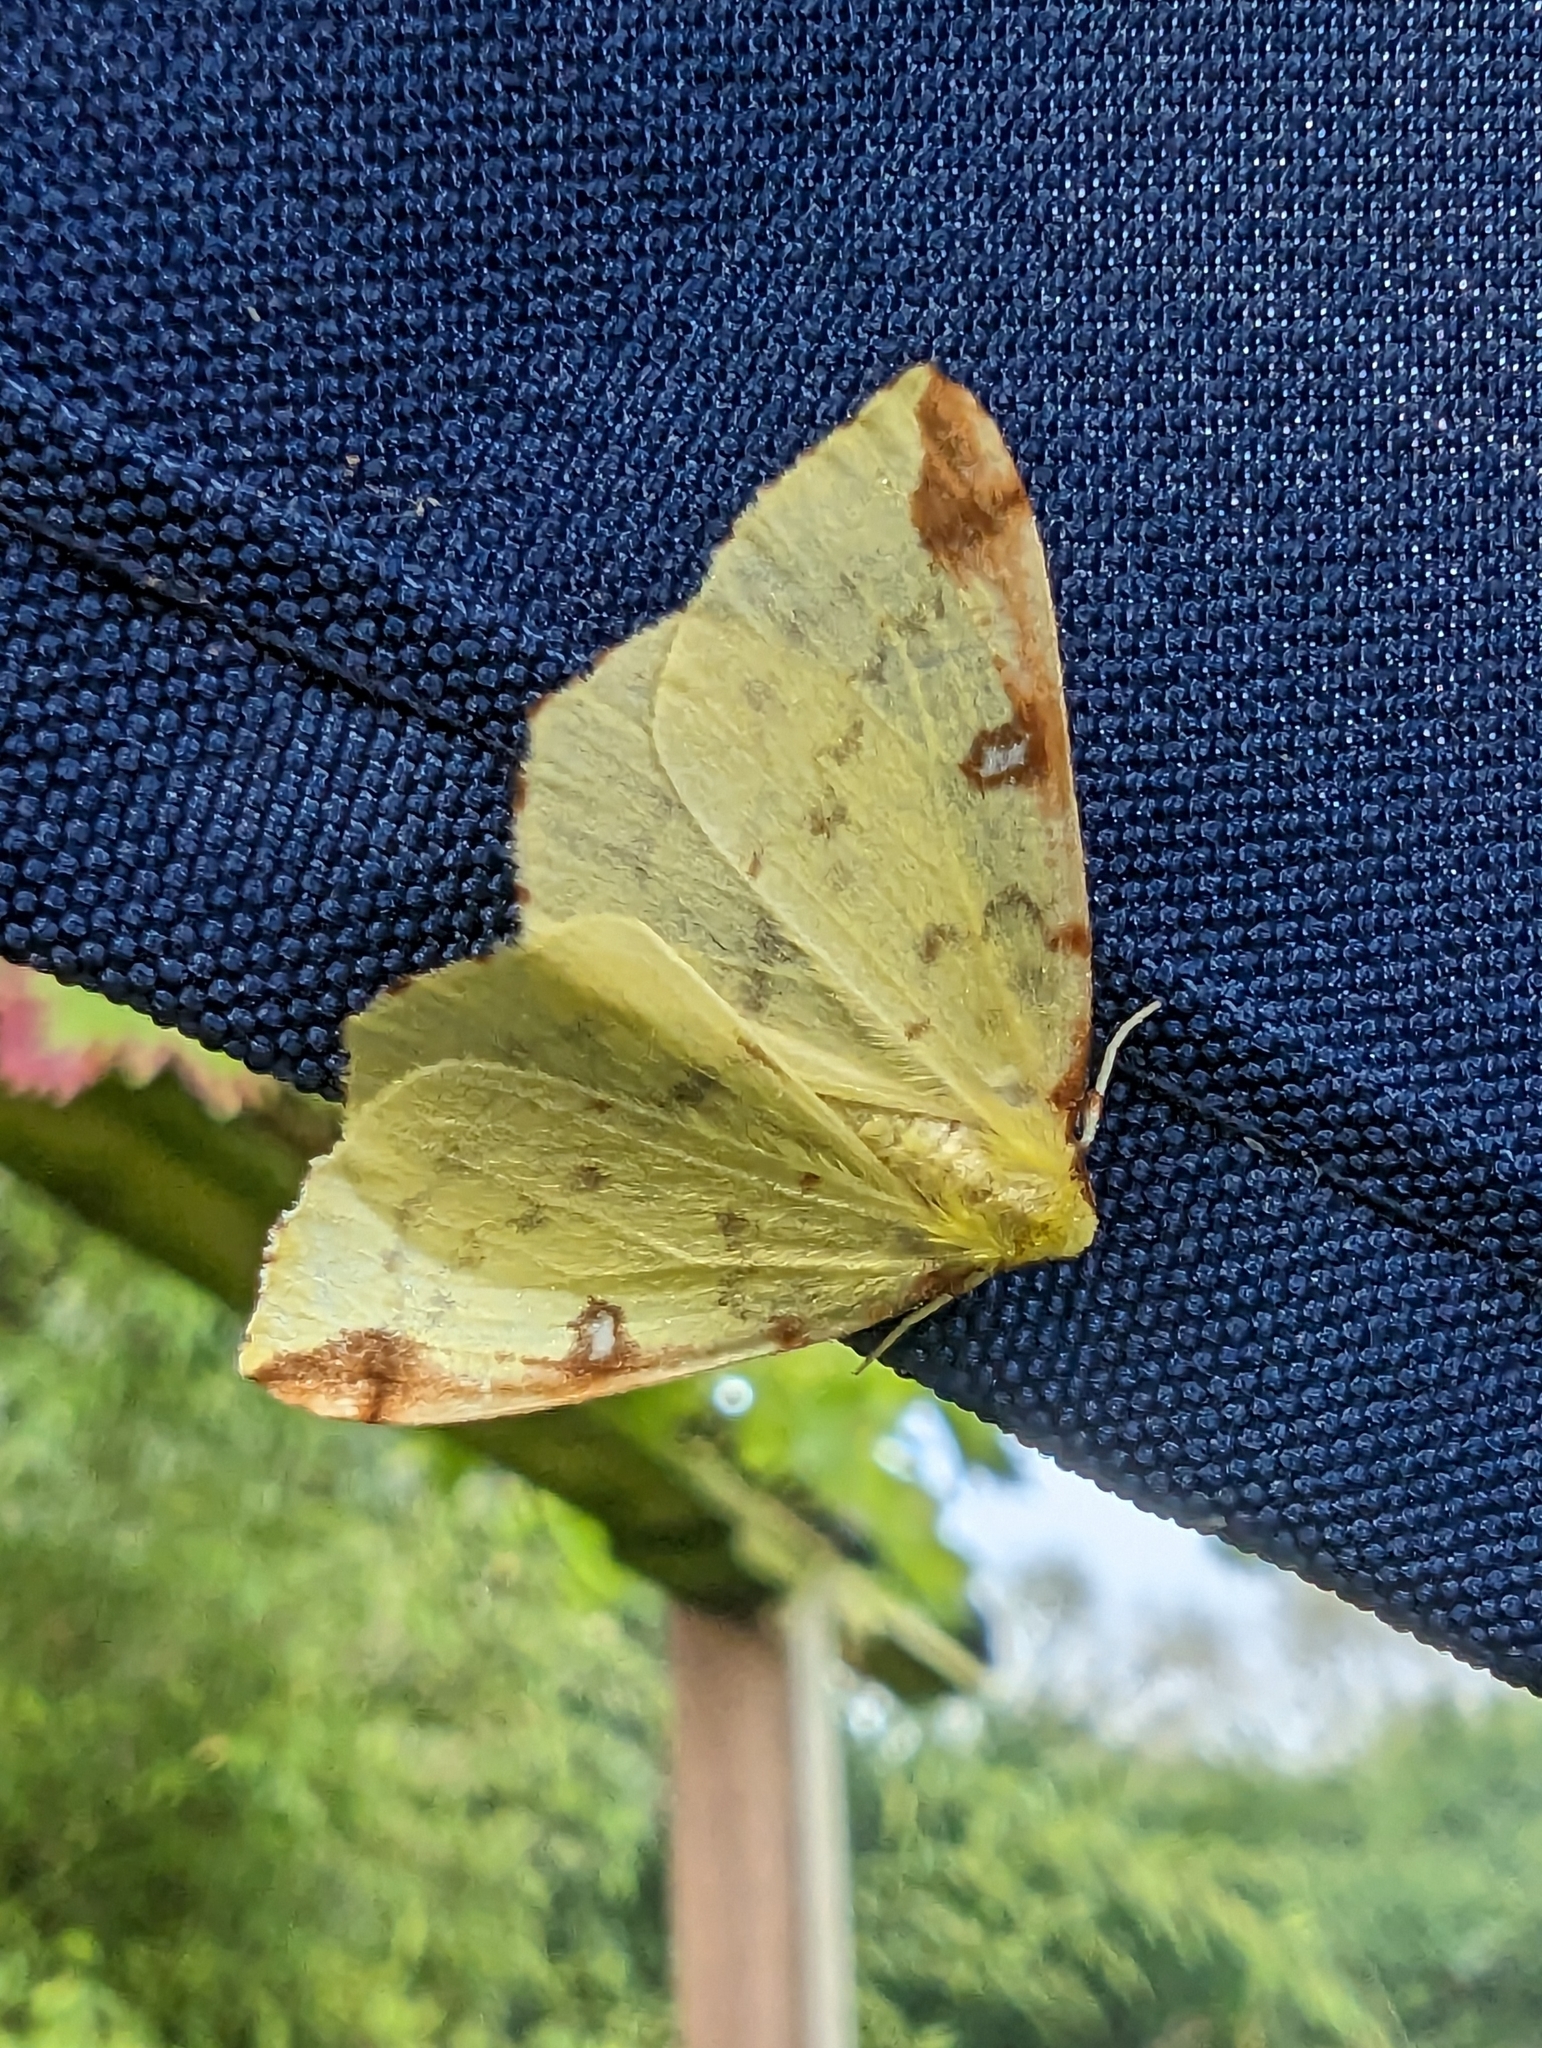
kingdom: Animalia
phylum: Arthropoda
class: Insecta
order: Lepidoptera
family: Geometridae
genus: Opisthograptis
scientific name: Opisthograptis luteolata
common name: Brimstone moth
